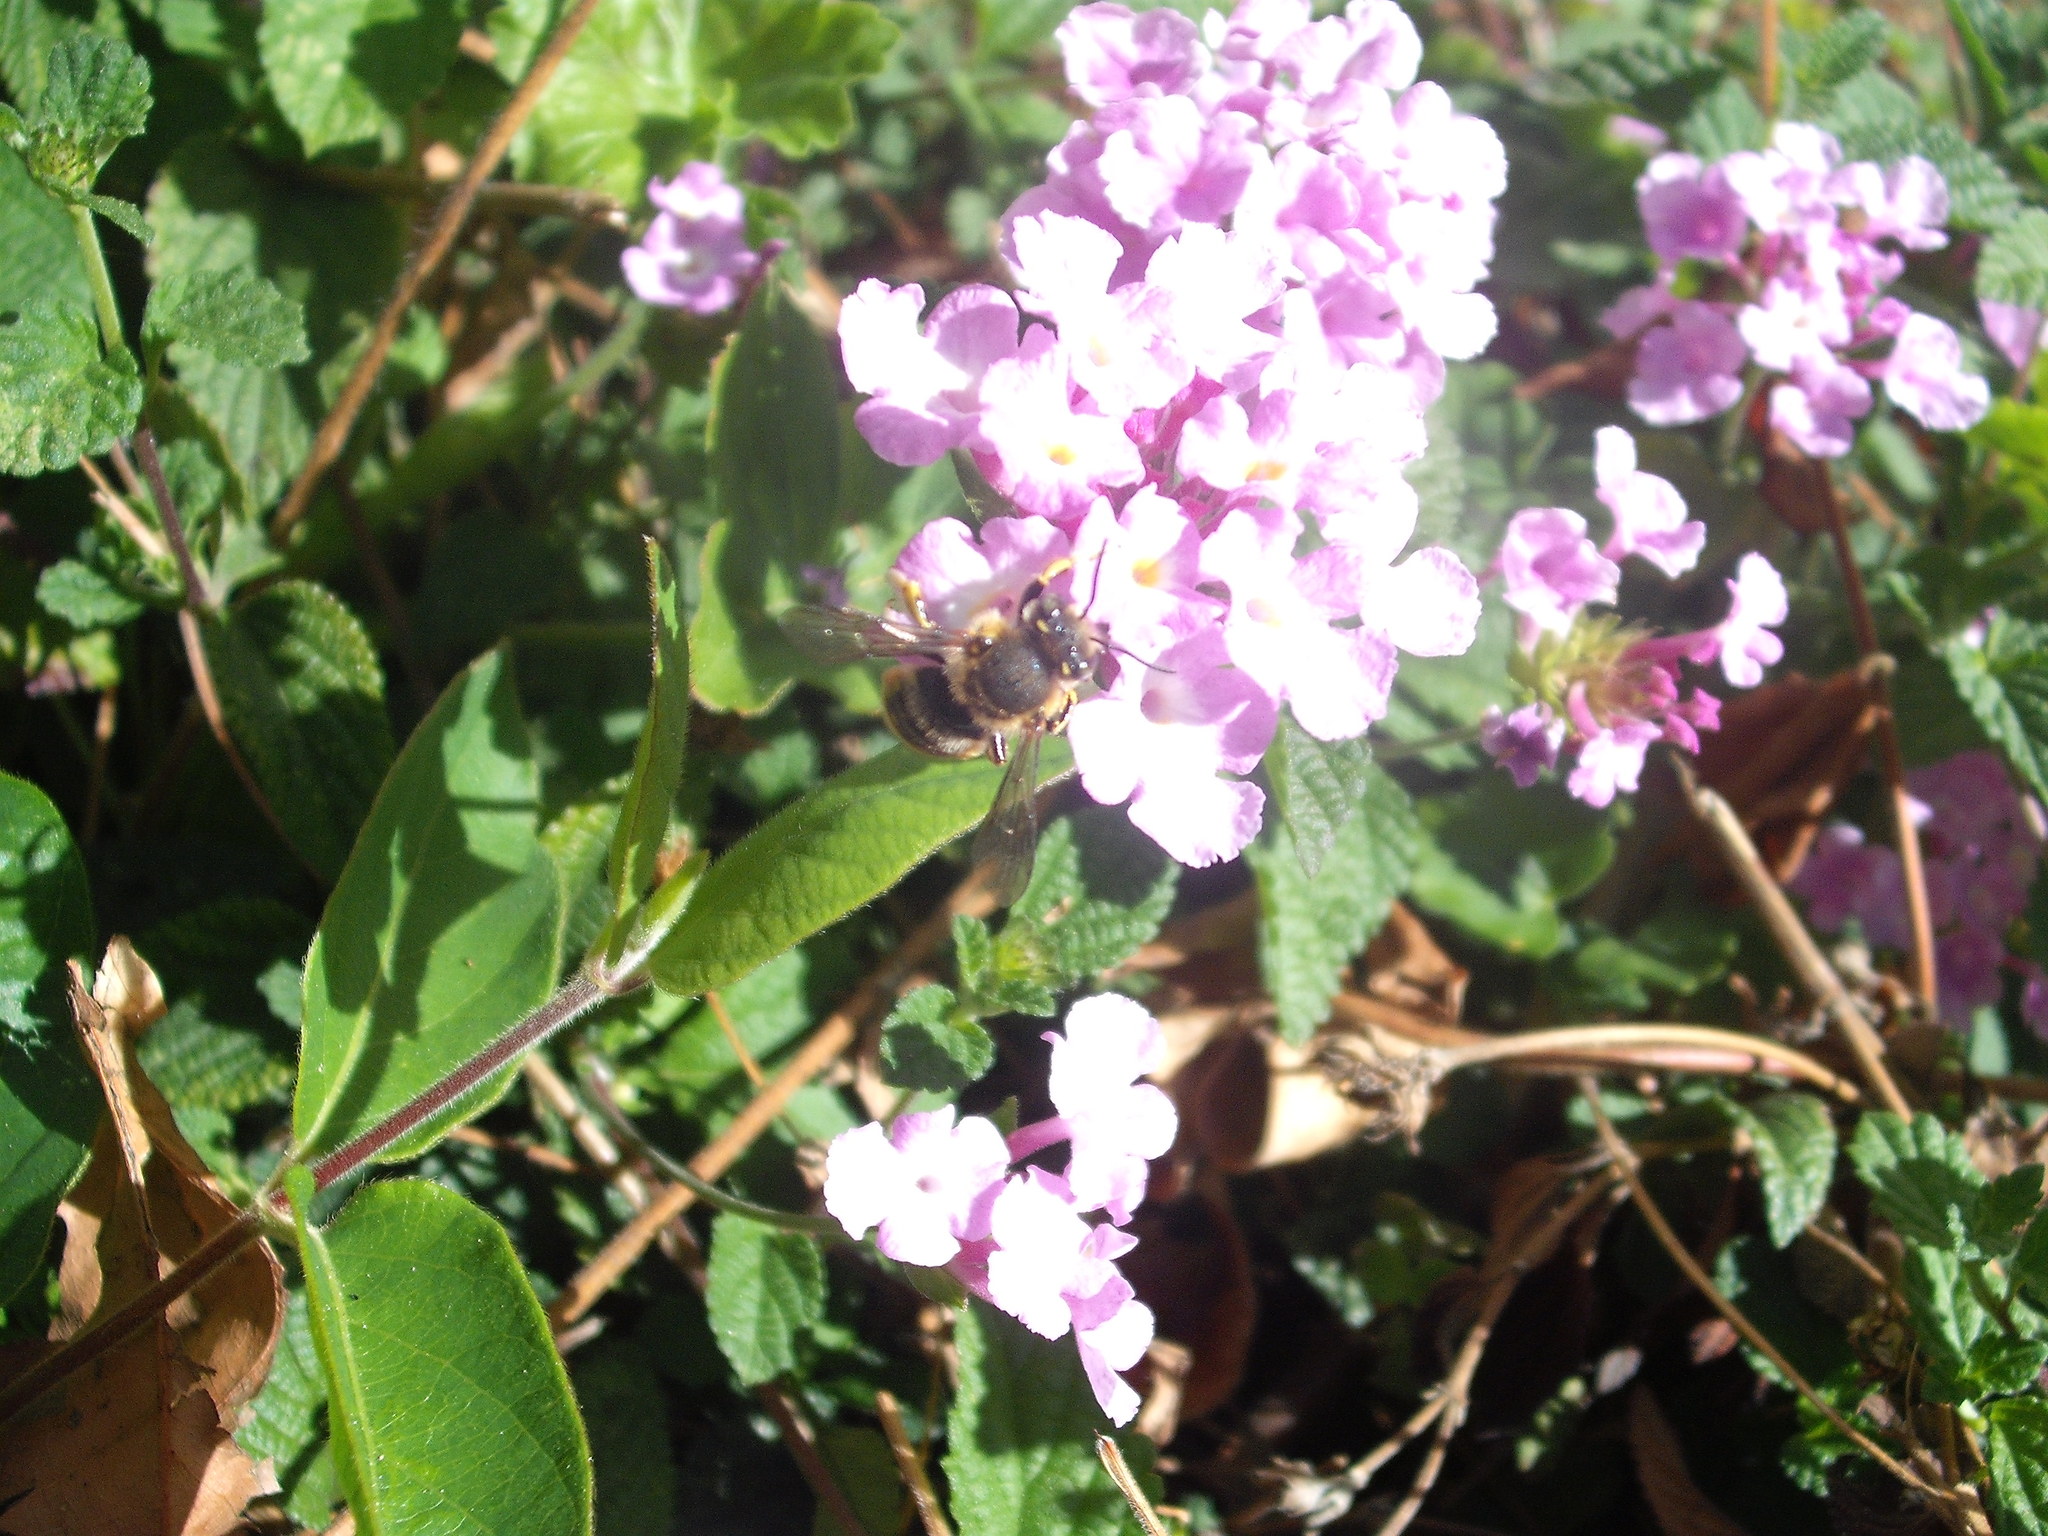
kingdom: Animalia
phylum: Arthropoda
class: Insecta
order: Hymenoptera
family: Megachilidae
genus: Anthidium
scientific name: Anthidium manicatum
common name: Wool carder bee
